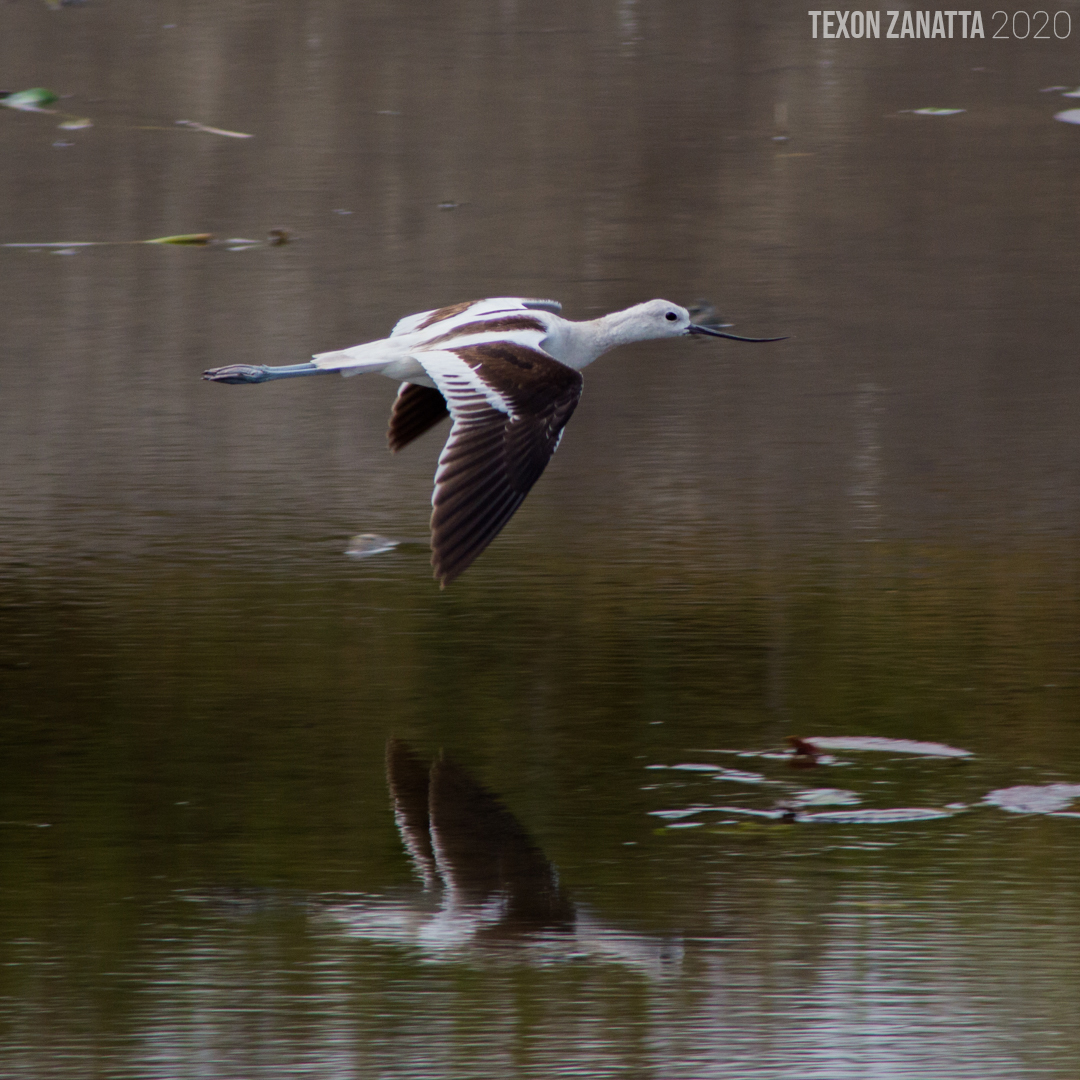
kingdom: Animalia
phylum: Chordata
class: Aves
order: Charadriiformes
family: Recurvirostridae
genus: Recurvirostra
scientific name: Recurvirostra americana
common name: American avocet
